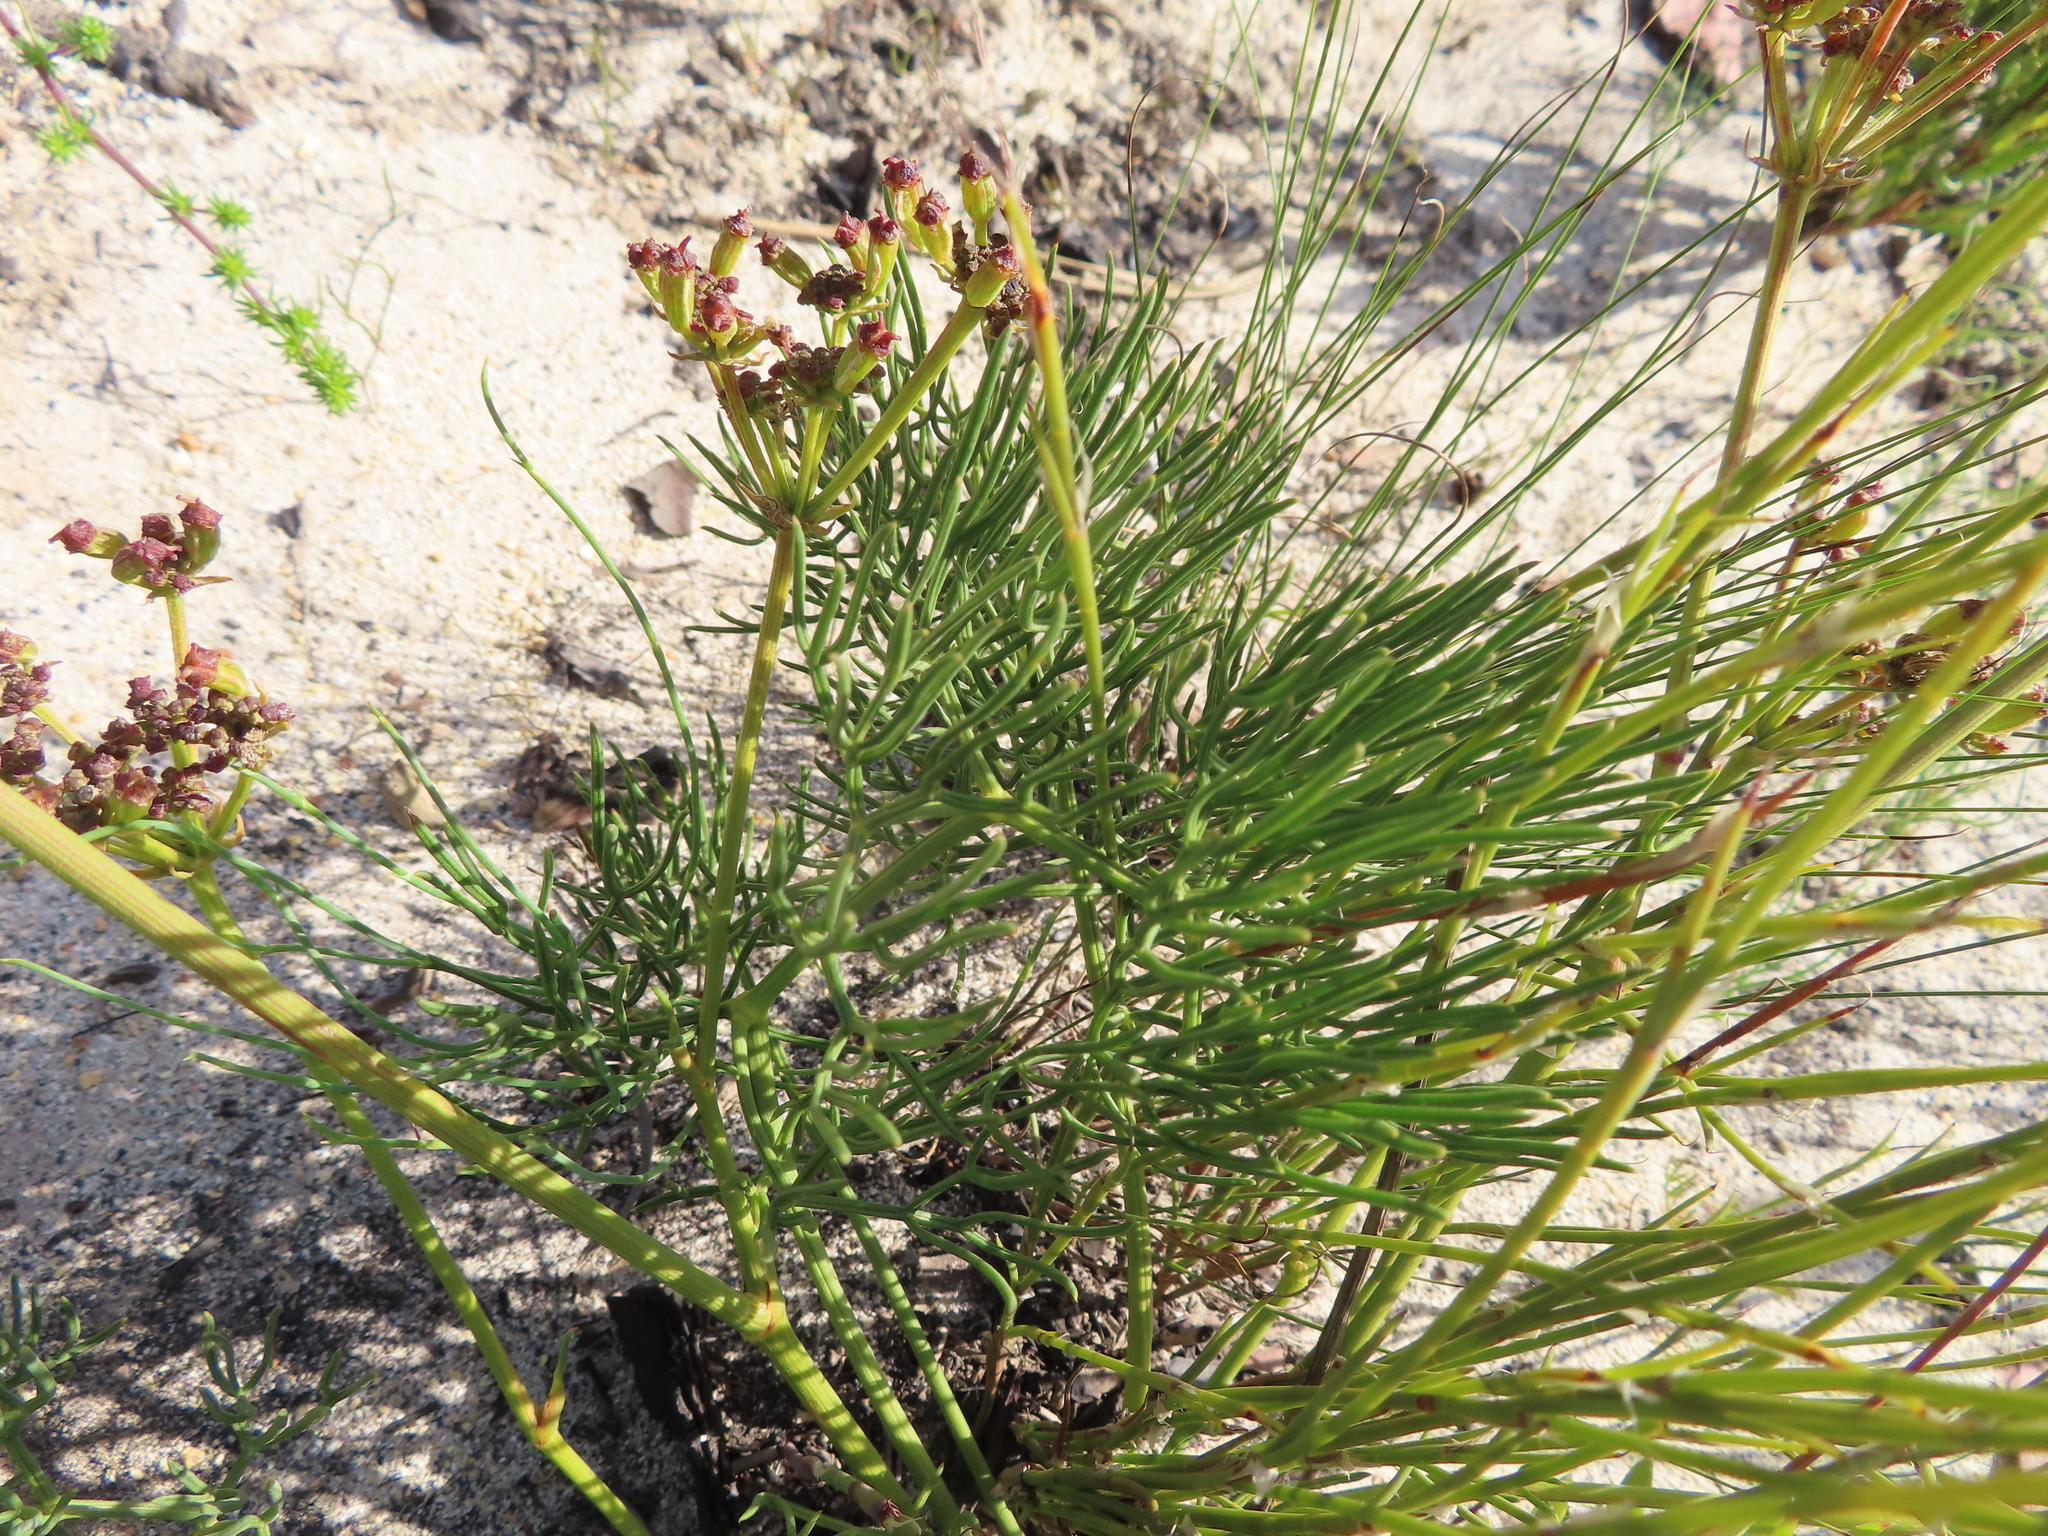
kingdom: Plantae
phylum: Tracheophyta
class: Magnoliopsida
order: Apiales
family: Apiaceae
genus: Nanobubon
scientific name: Nanobubon strictum
